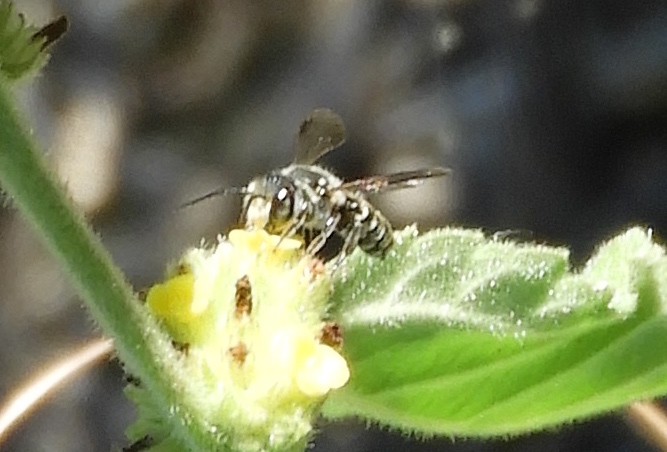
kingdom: Animalia
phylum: Arthropoda
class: Insecta
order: Hymenoptera
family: Megachilidae
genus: Megachile
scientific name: Megachile
